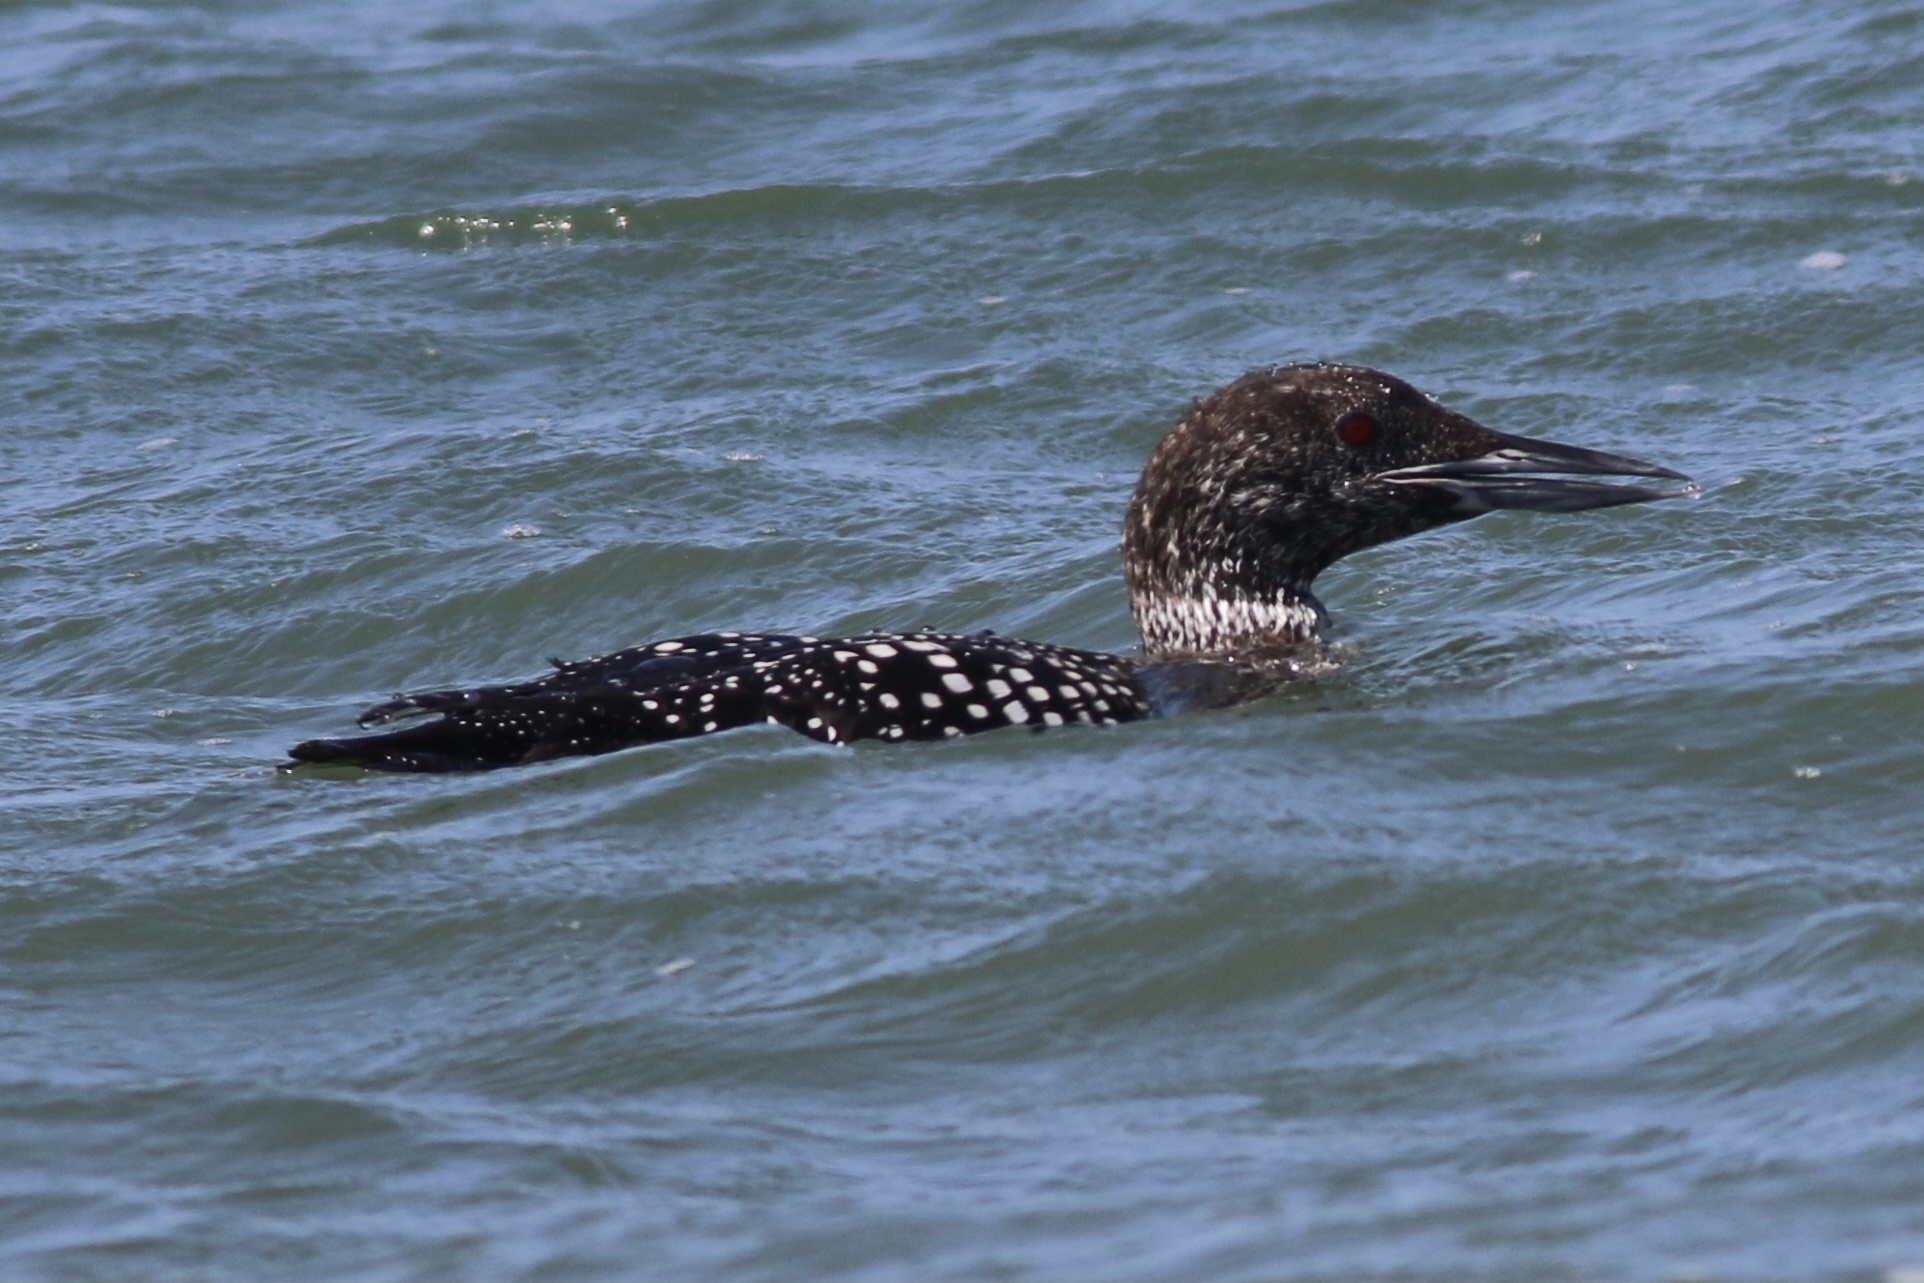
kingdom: Animalia
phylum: Chordata
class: Aves
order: Gaviiformes
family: Gaviidae
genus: Gavia
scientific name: Gavia immer
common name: Common loon
